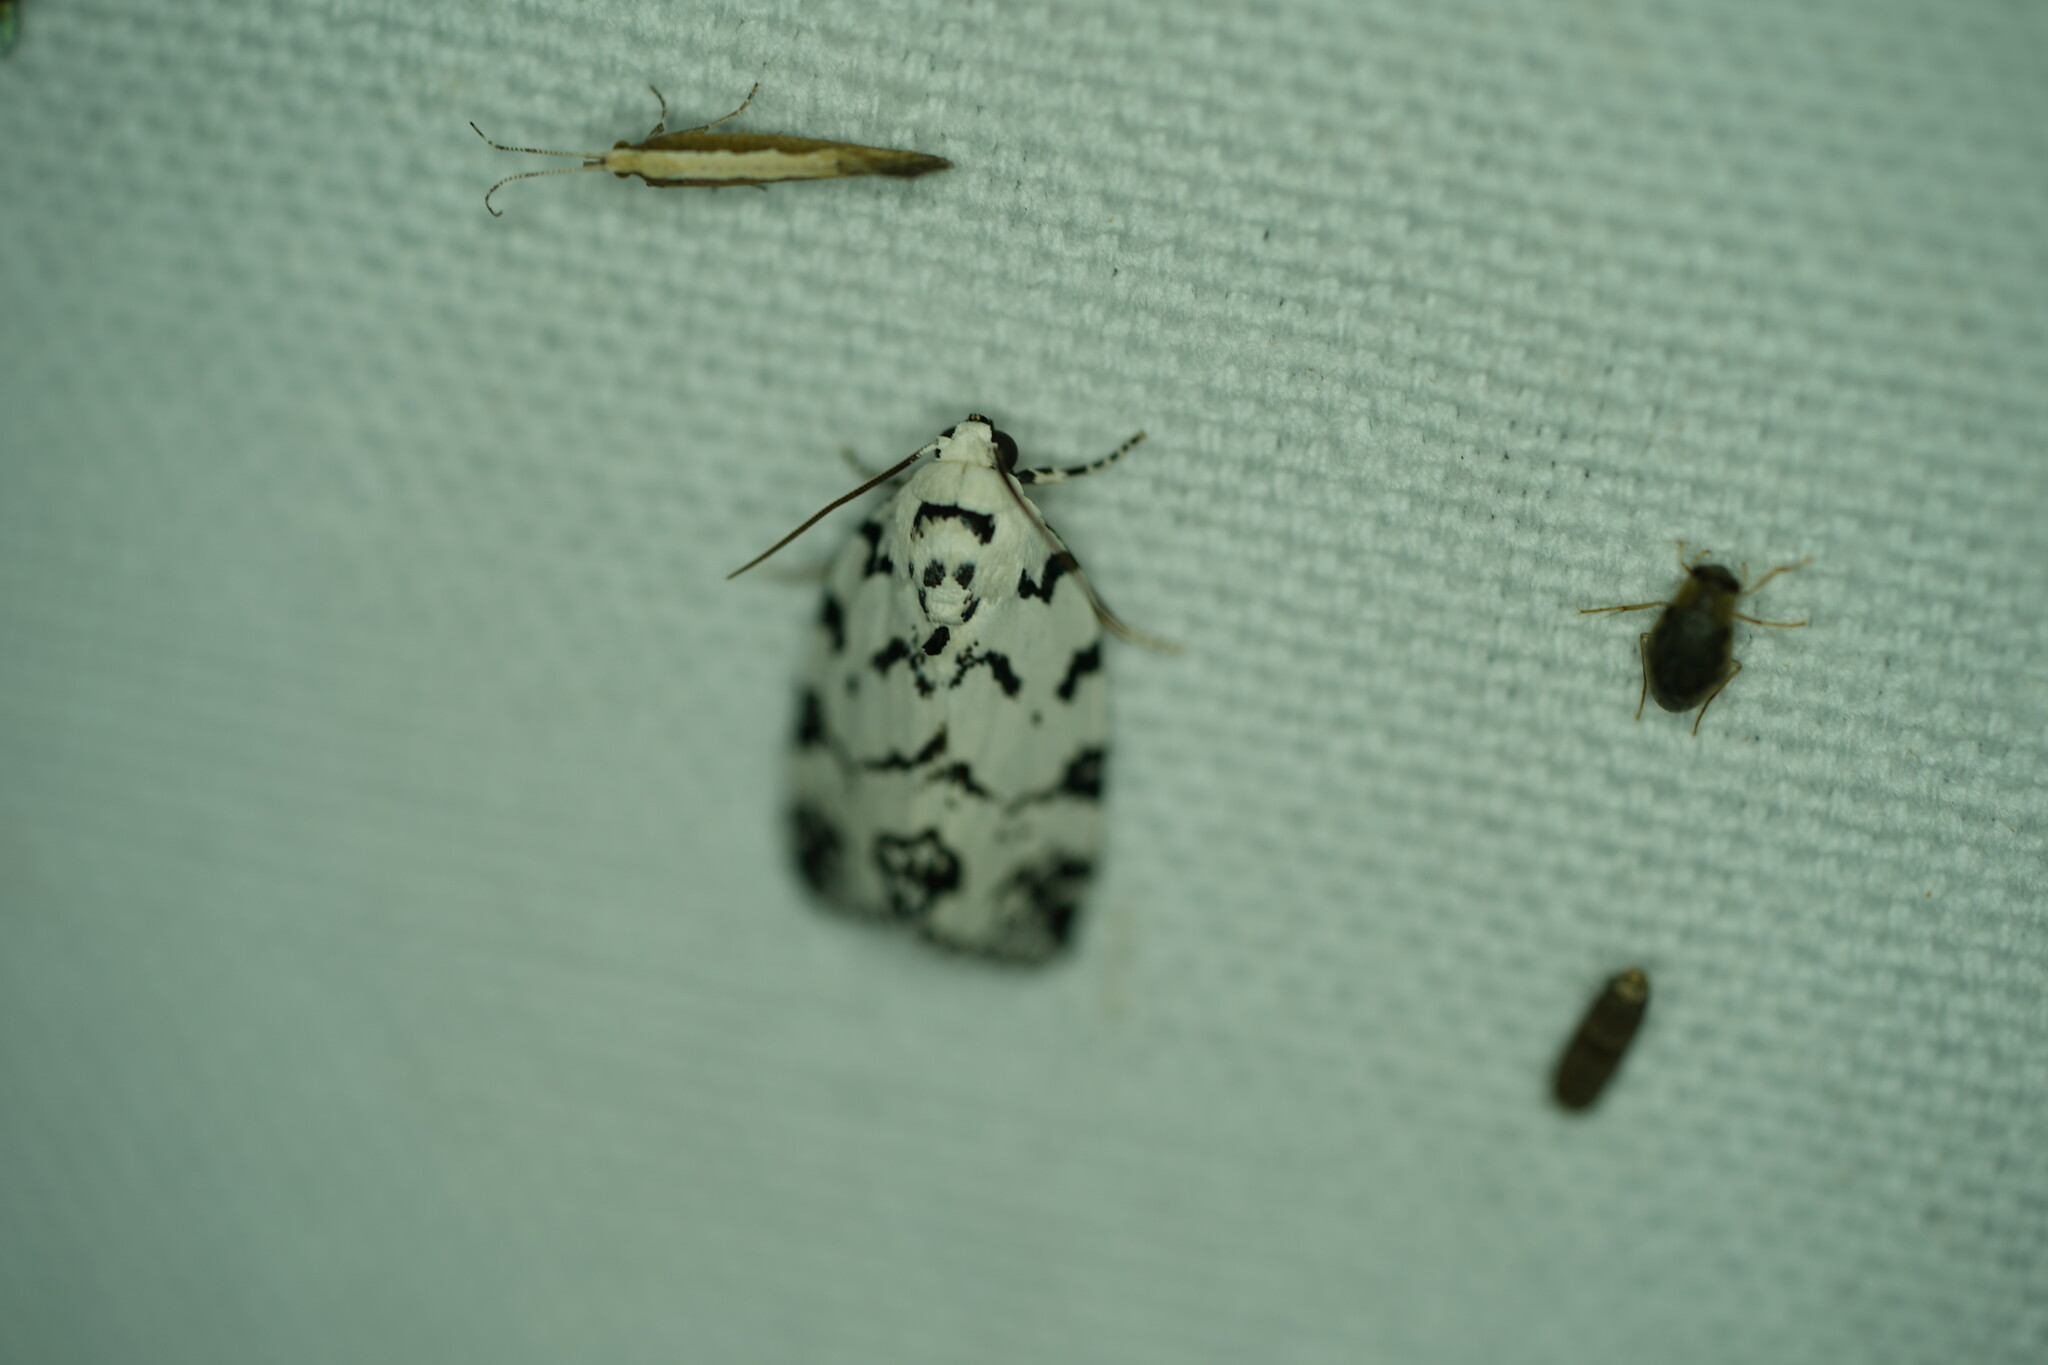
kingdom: Animalia
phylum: Arthropoda
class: Insecta
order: Lepidoptera
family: Noctuidae
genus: Polygrammate
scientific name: Polygrammate hebraeicum
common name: Hebrew moth
